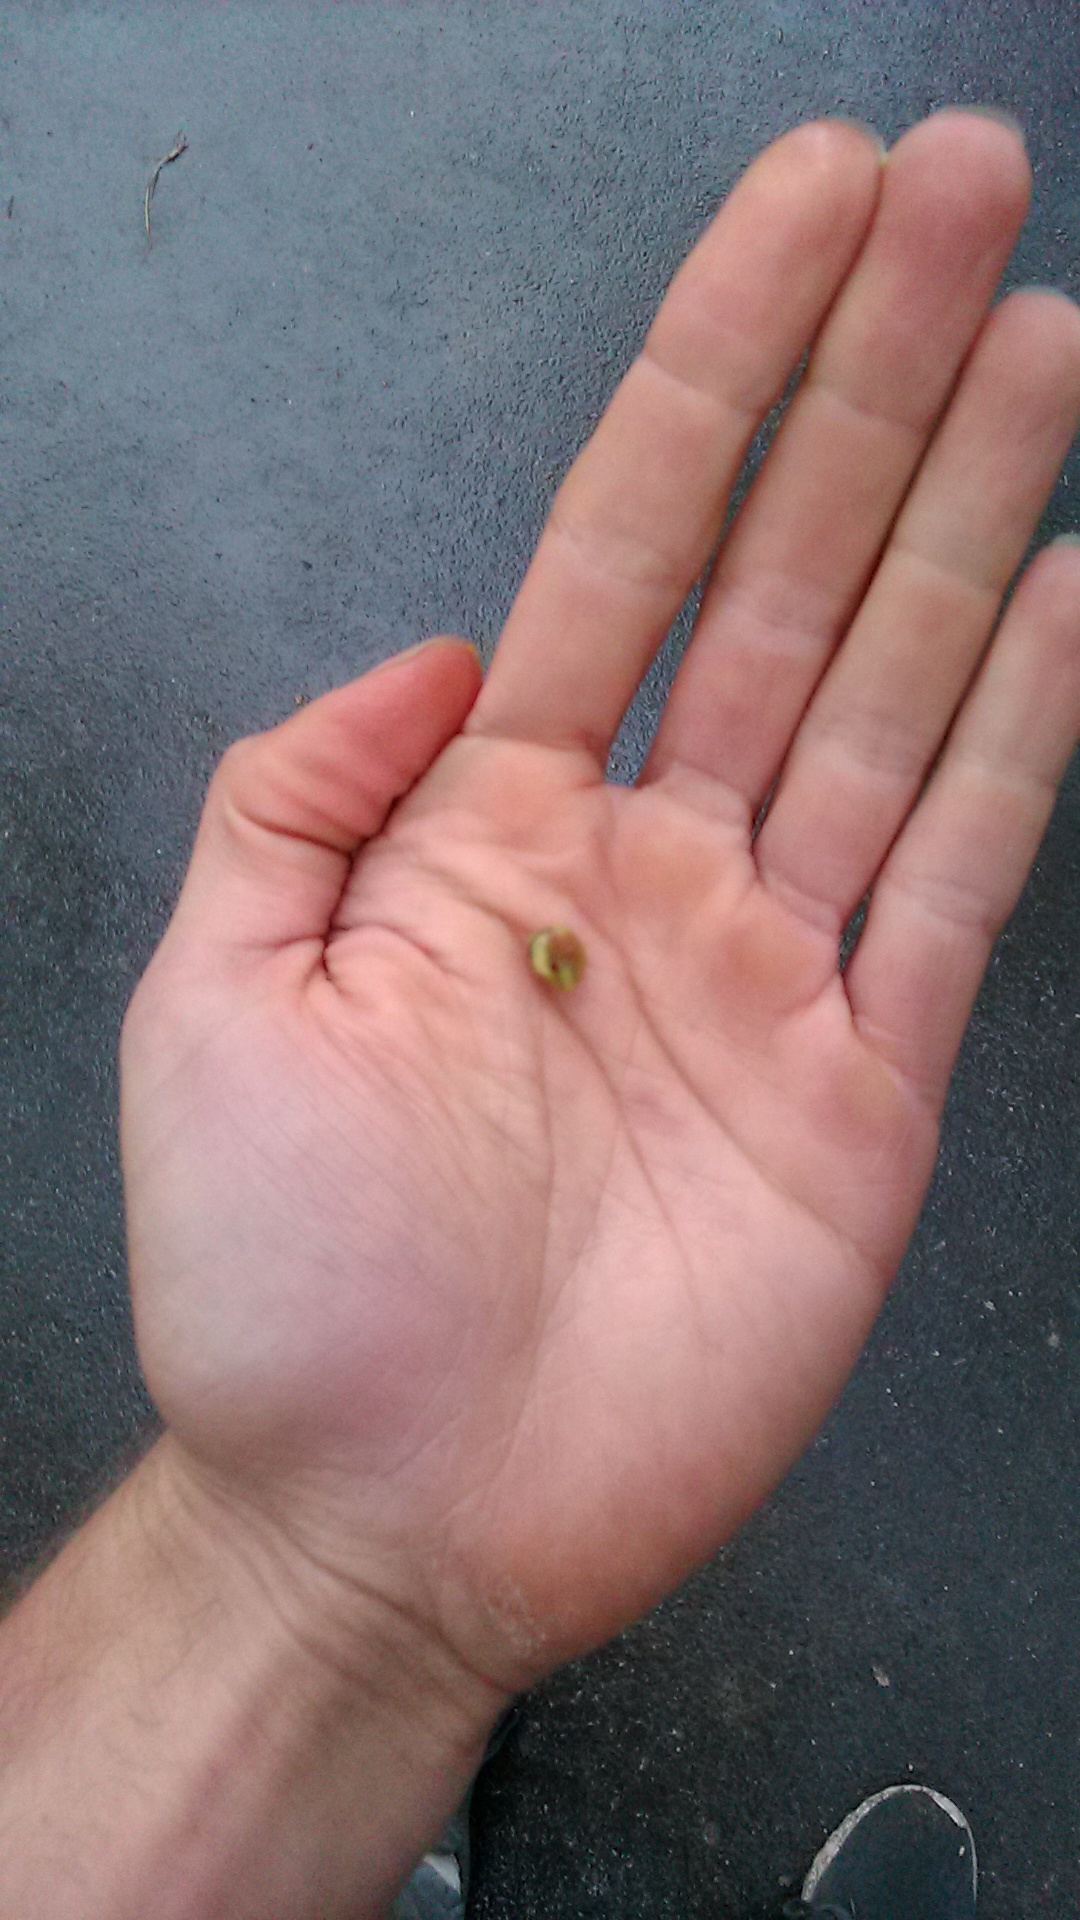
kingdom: Plantae
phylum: Tracheophyta
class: Magnoliopsida
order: Rosales
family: Rosaceae
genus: Crataegus
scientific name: Crataegus monogyna
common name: Hawthorn
